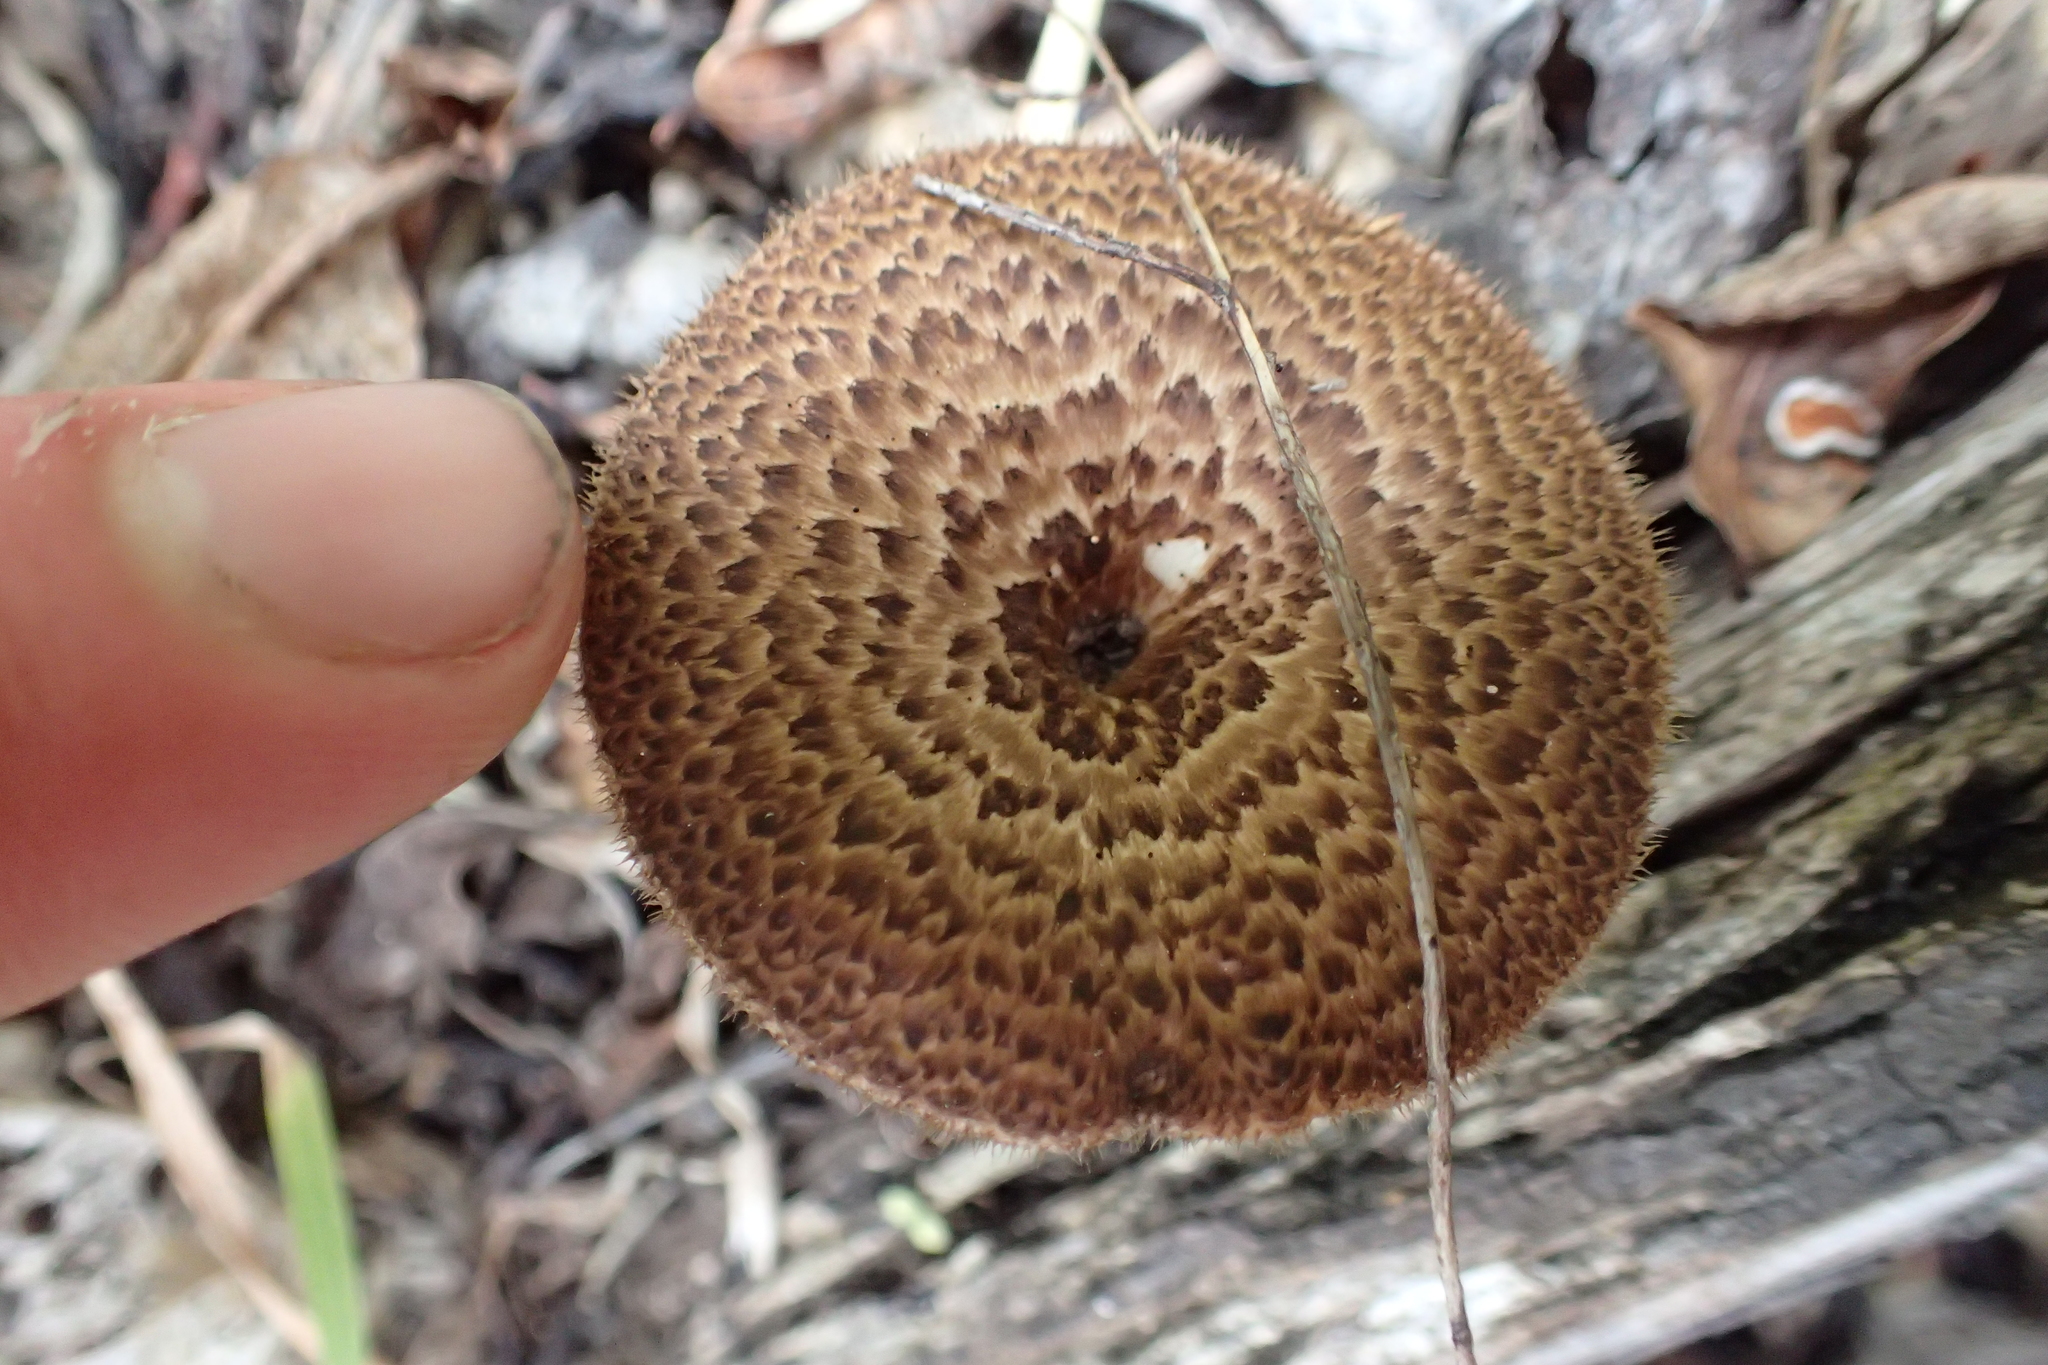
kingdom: Fungi
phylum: Basidiomycota
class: Agaricomycetes
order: Polyporales
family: Polyporaceae
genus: Lentinus
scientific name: Lentinus arcularius
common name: Spring polypore
